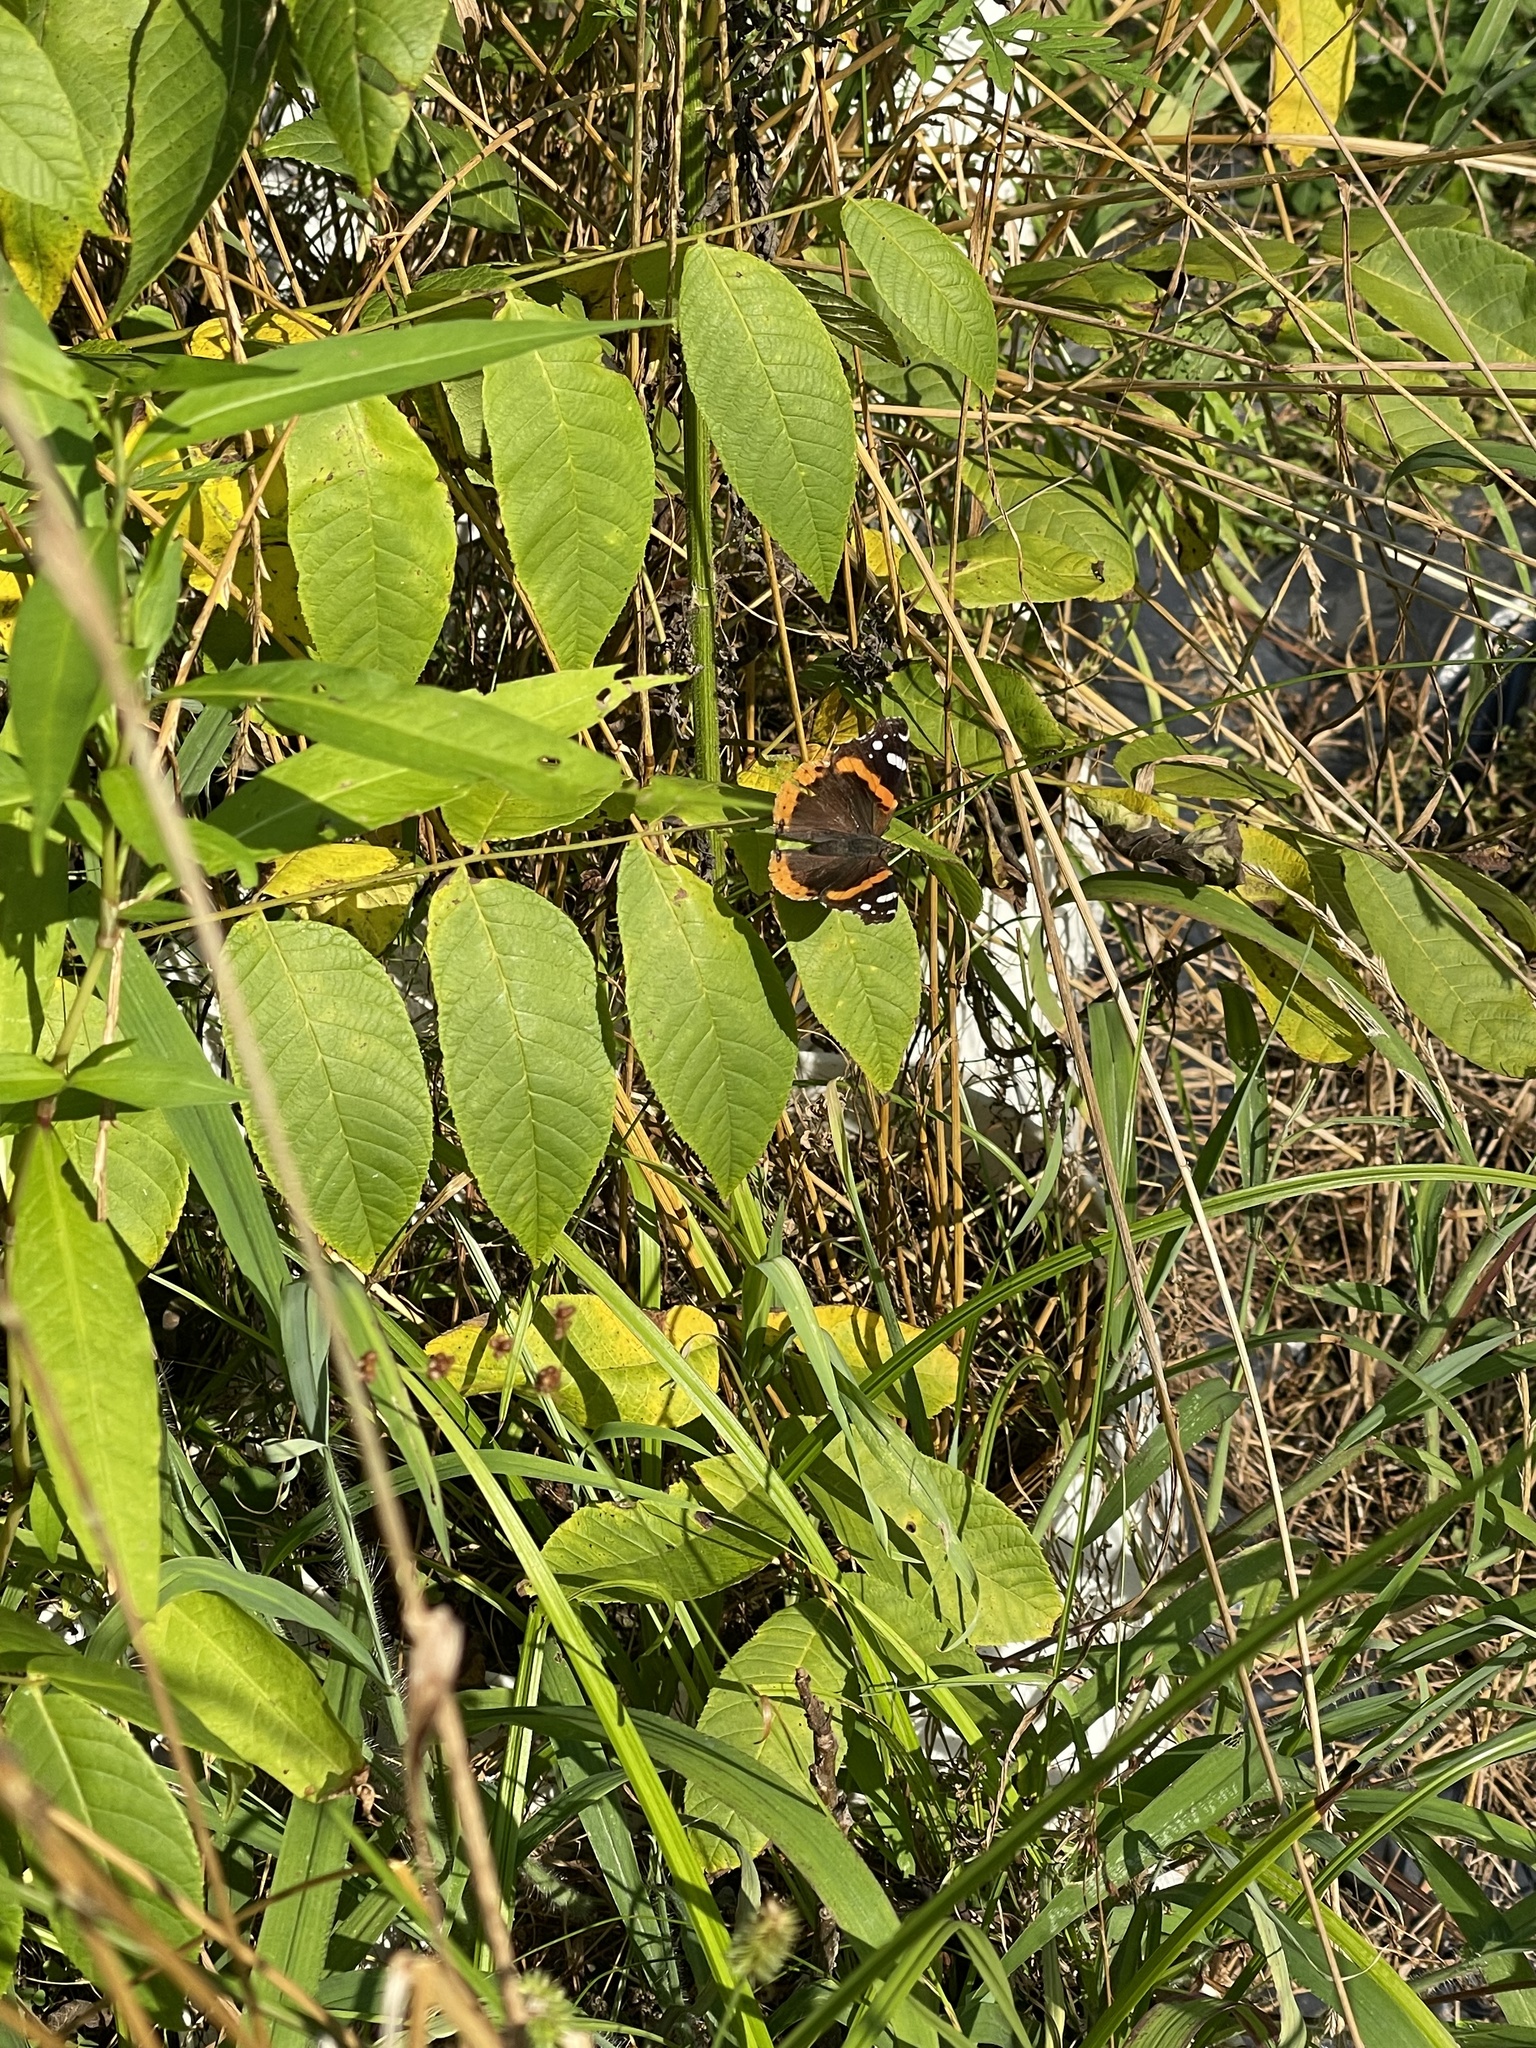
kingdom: Animalia
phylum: Arthropoda
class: Insecta
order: Lepidoptera
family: Nymphalidae
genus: Vanessa
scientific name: Vanessa atalanta
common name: Red admiral
